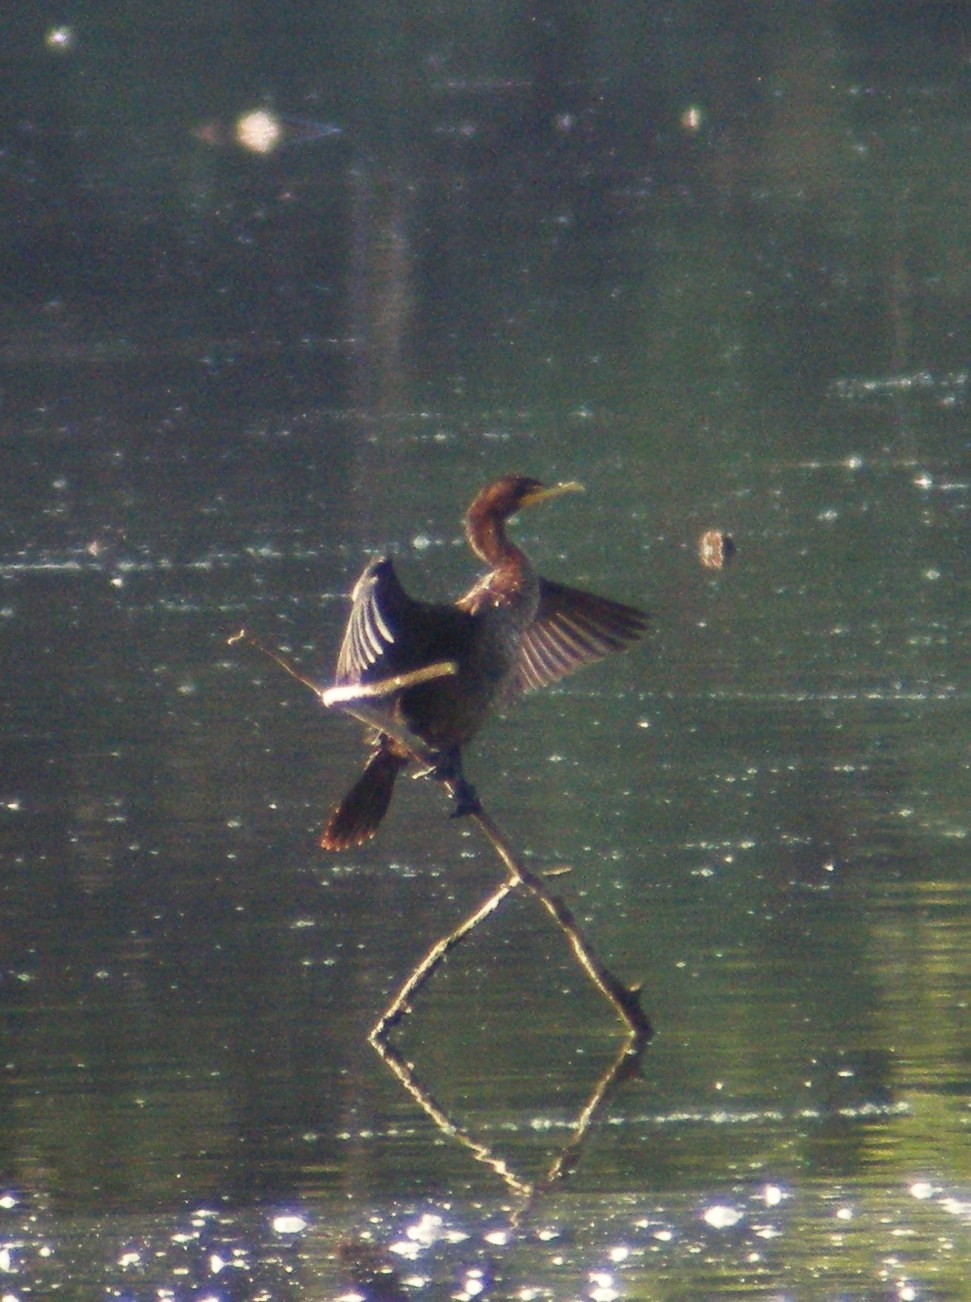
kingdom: Animalia
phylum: Chordata
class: Aves
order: Suliformes
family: Phalacrocoracidae
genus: Phalacrocorax
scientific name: Phalacrocorax auritus
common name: Double-crested cormorant
